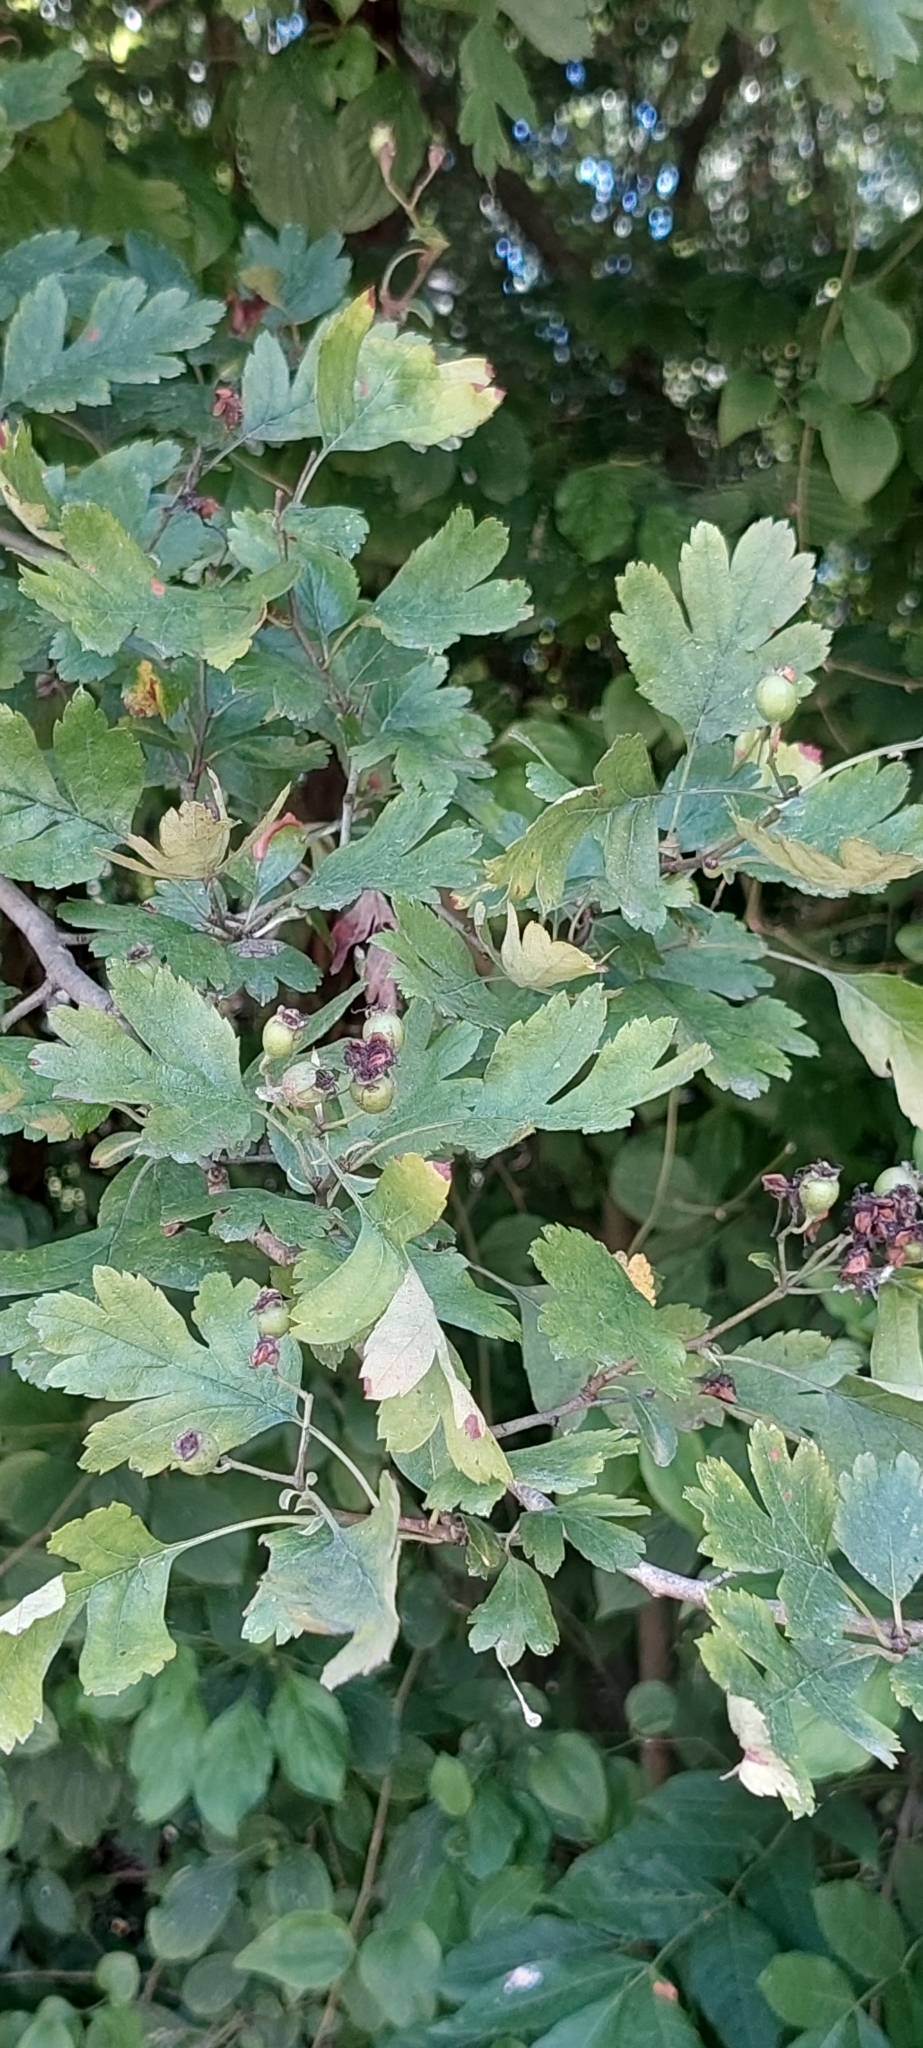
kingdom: Plantae
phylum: Tracheophyta
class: Magnoliopsida
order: Rosales
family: Rosaceae
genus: Crataegus
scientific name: Crataegus monogyna
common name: Hawthorn
